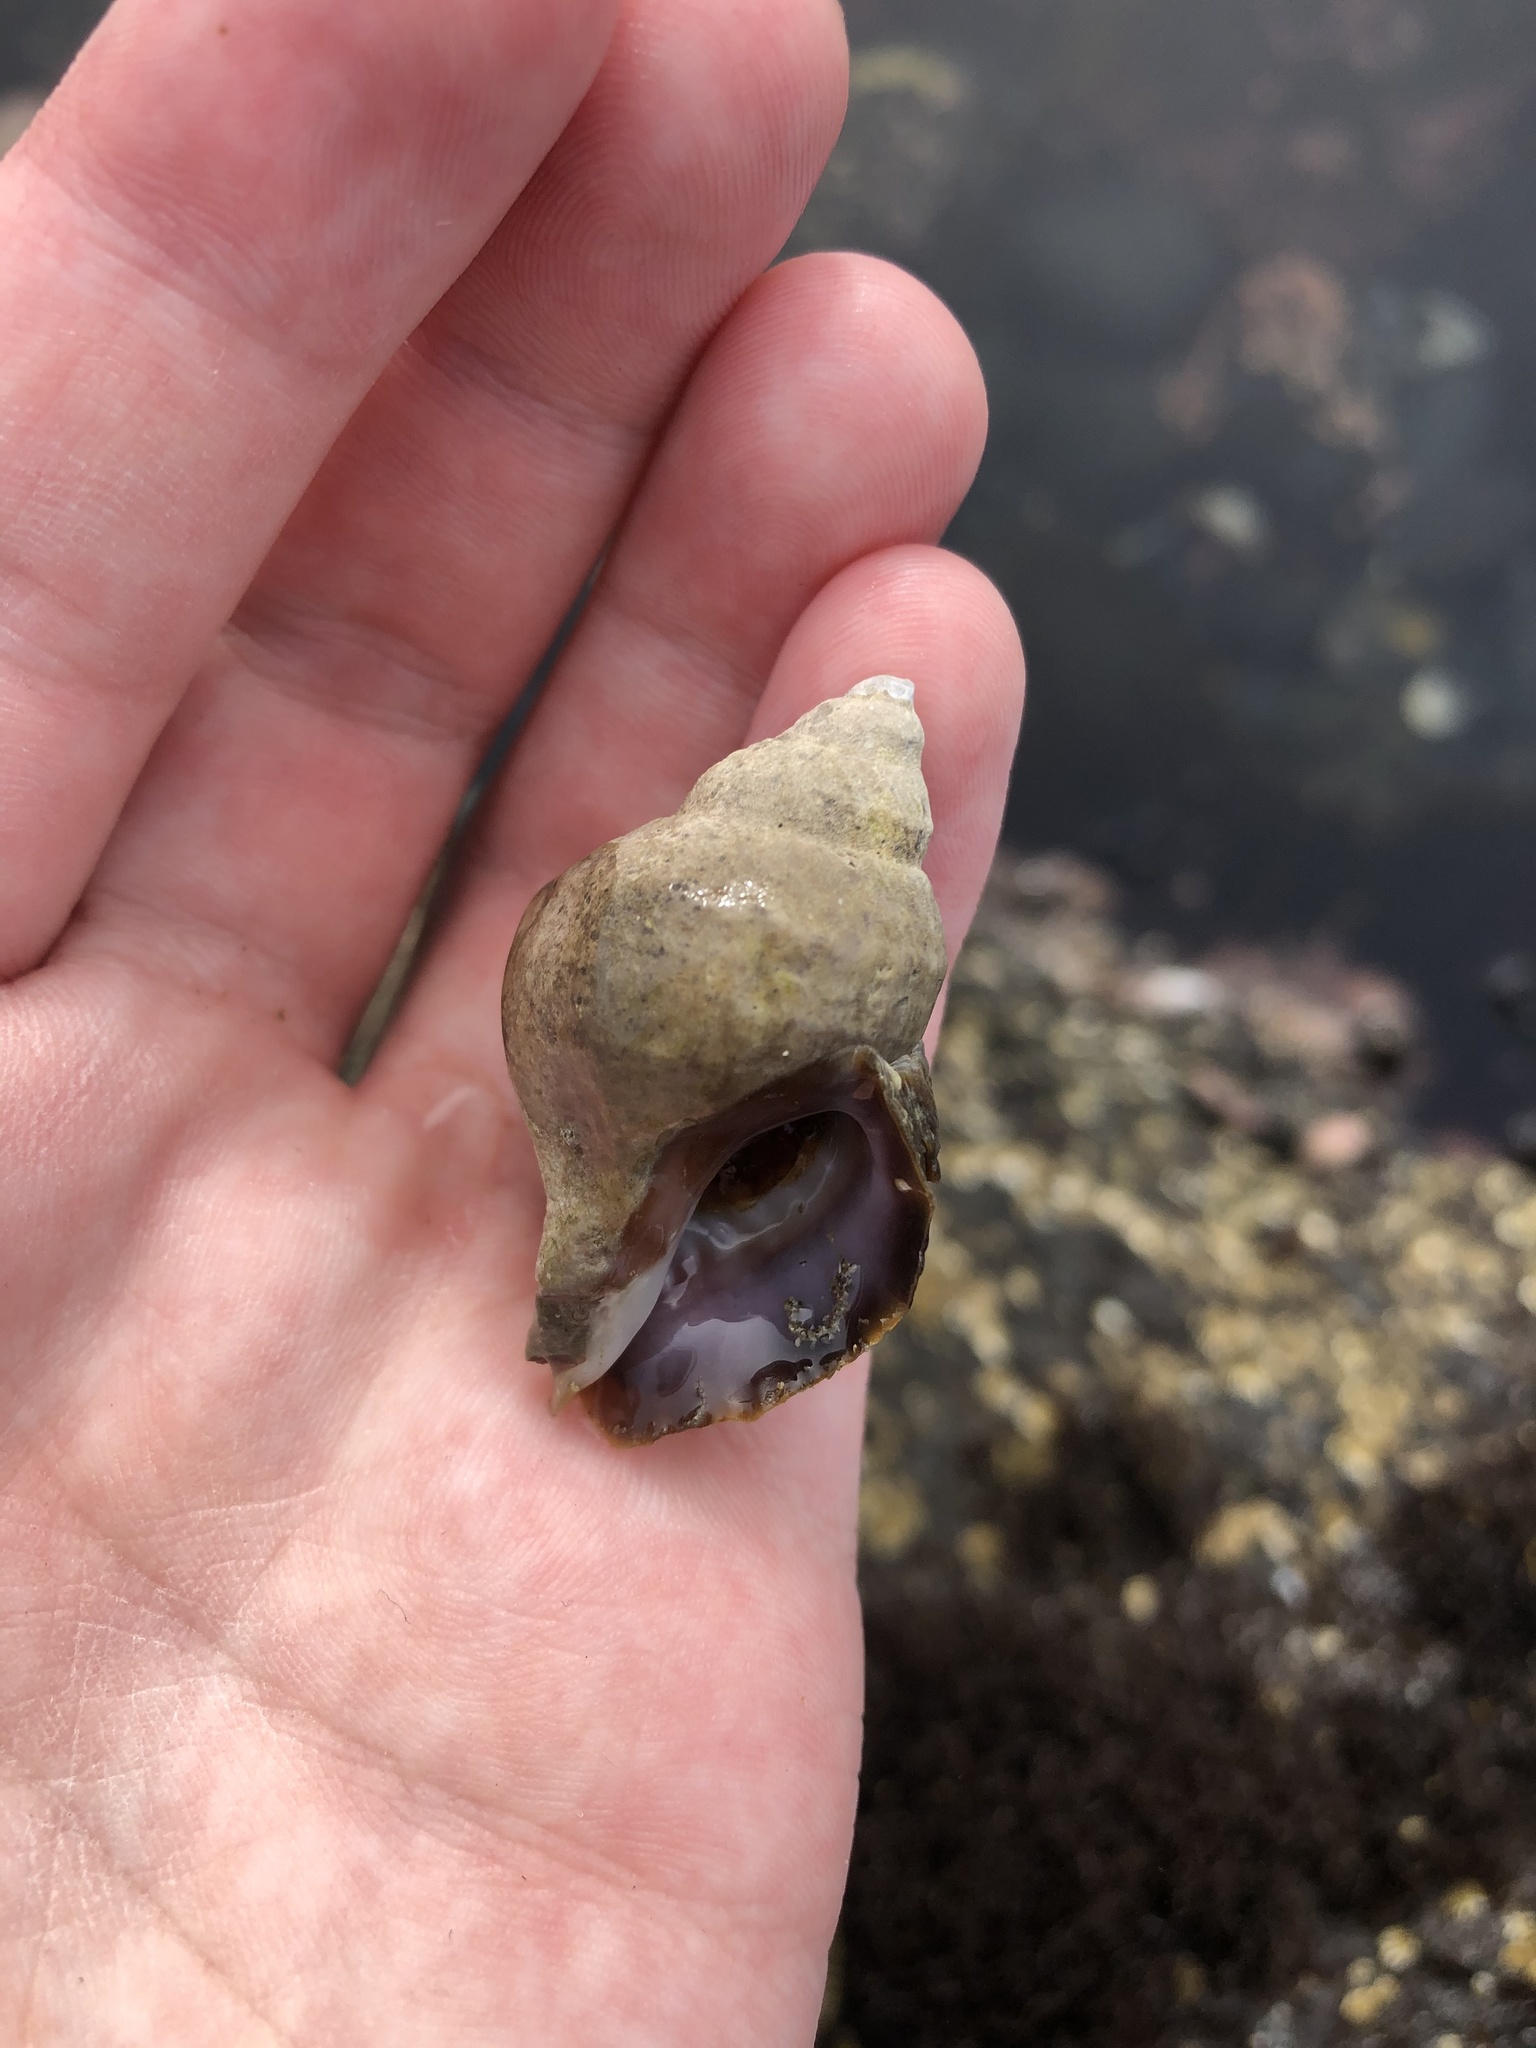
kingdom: Animalia
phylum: Mollusca
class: Gastropoda
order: Neogastropoda
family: Muricidae
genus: Nucella
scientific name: Nucella lamellosa
